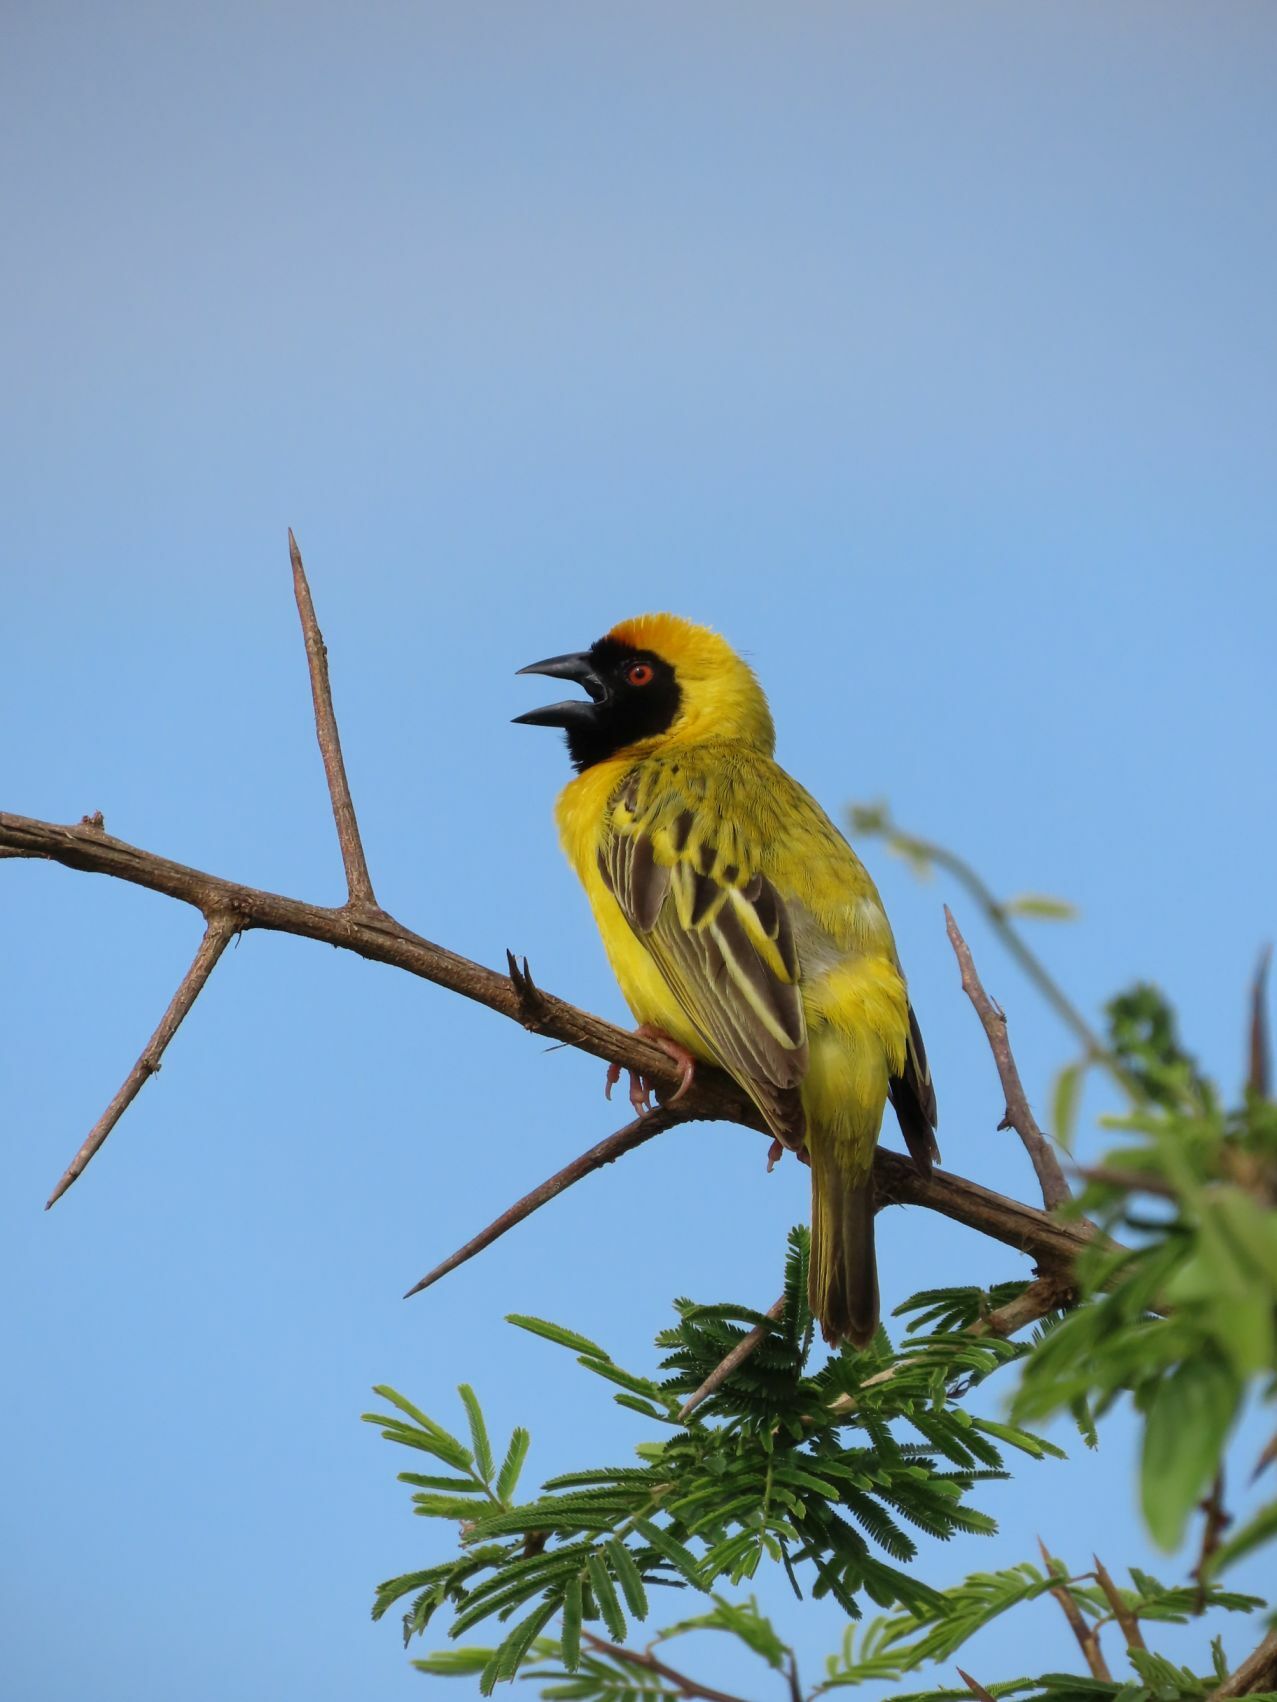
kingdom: Animalia
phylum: Chordata
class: Aves
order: Passeriformes
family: Ploceidae
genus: Ploceus
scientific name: Ploceus velatus
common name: Southern masked weaver
